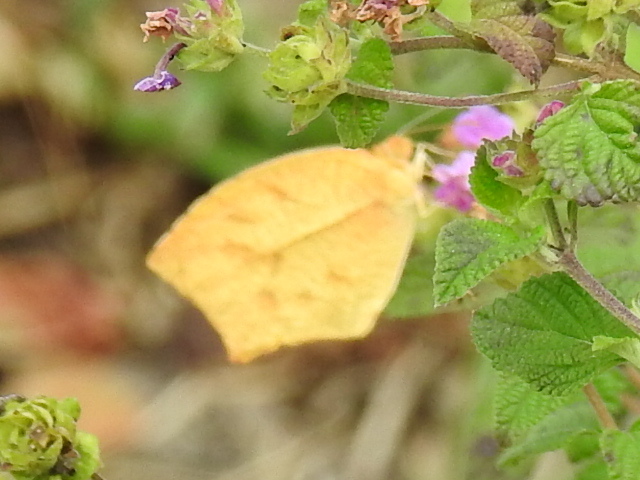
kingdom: Animalia
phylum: Arthropoda
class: Insecta
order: Lepidoptera
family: Pieridae
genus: Pyrisitia
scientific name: Pyrisitia proterpia
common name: Tailed orange
